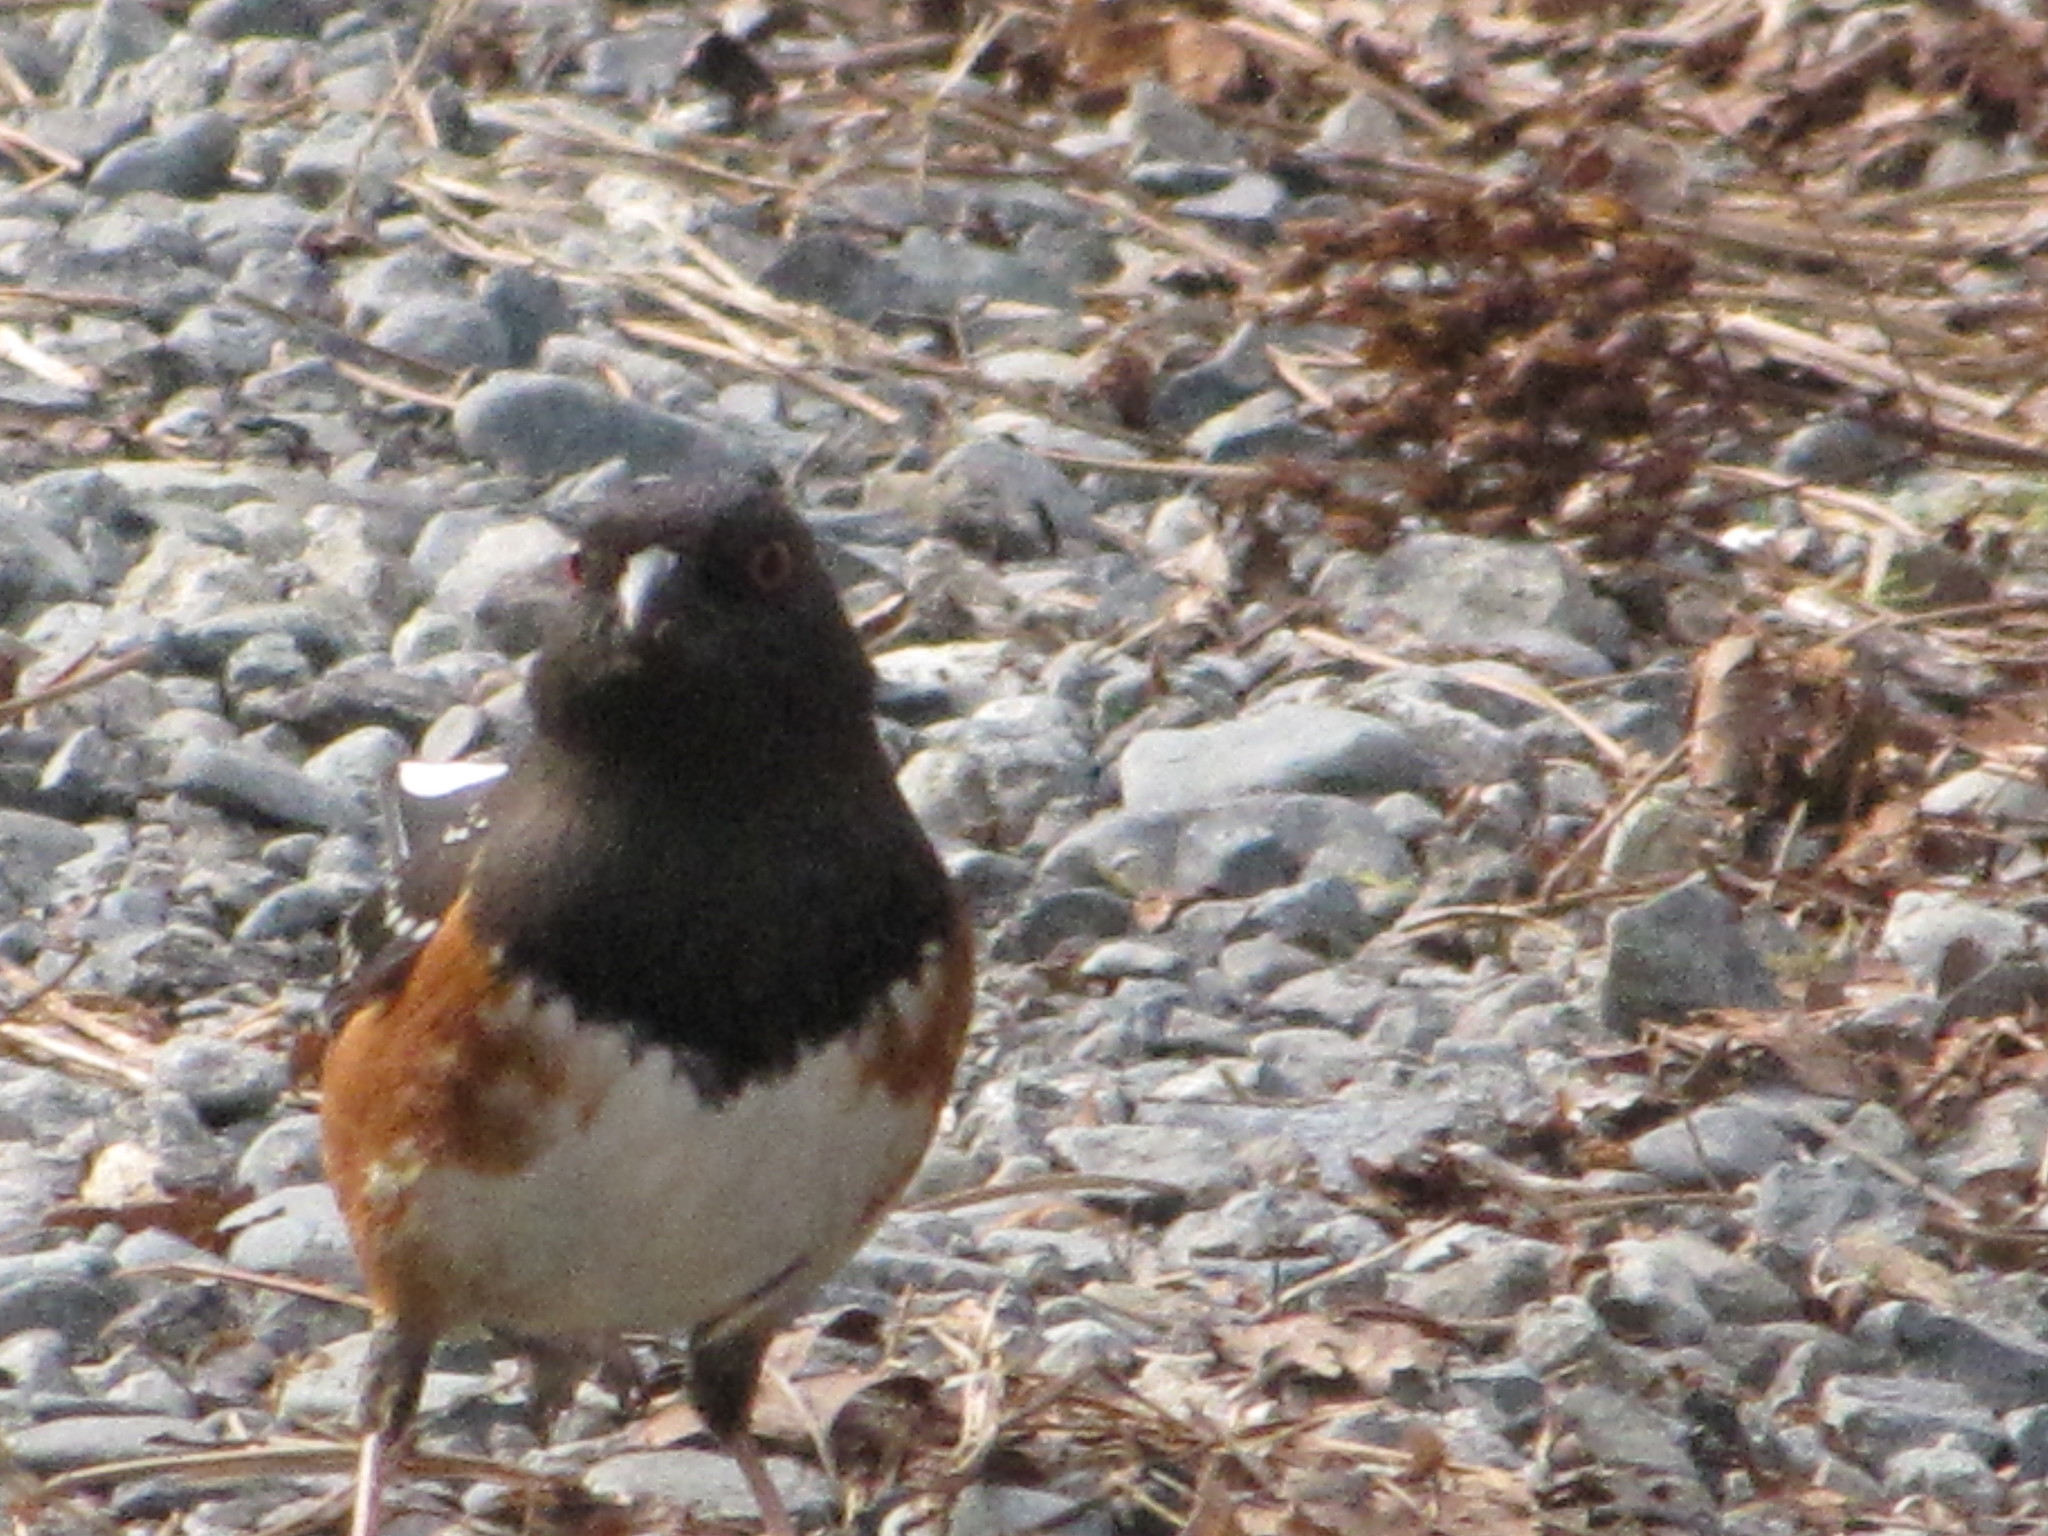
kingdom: Animalia
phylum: Chordata
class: Aves
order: Passeriformes
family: Passerellidae
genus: Pipilo
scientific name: Pipilo maculatus
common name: Spotted towhee
